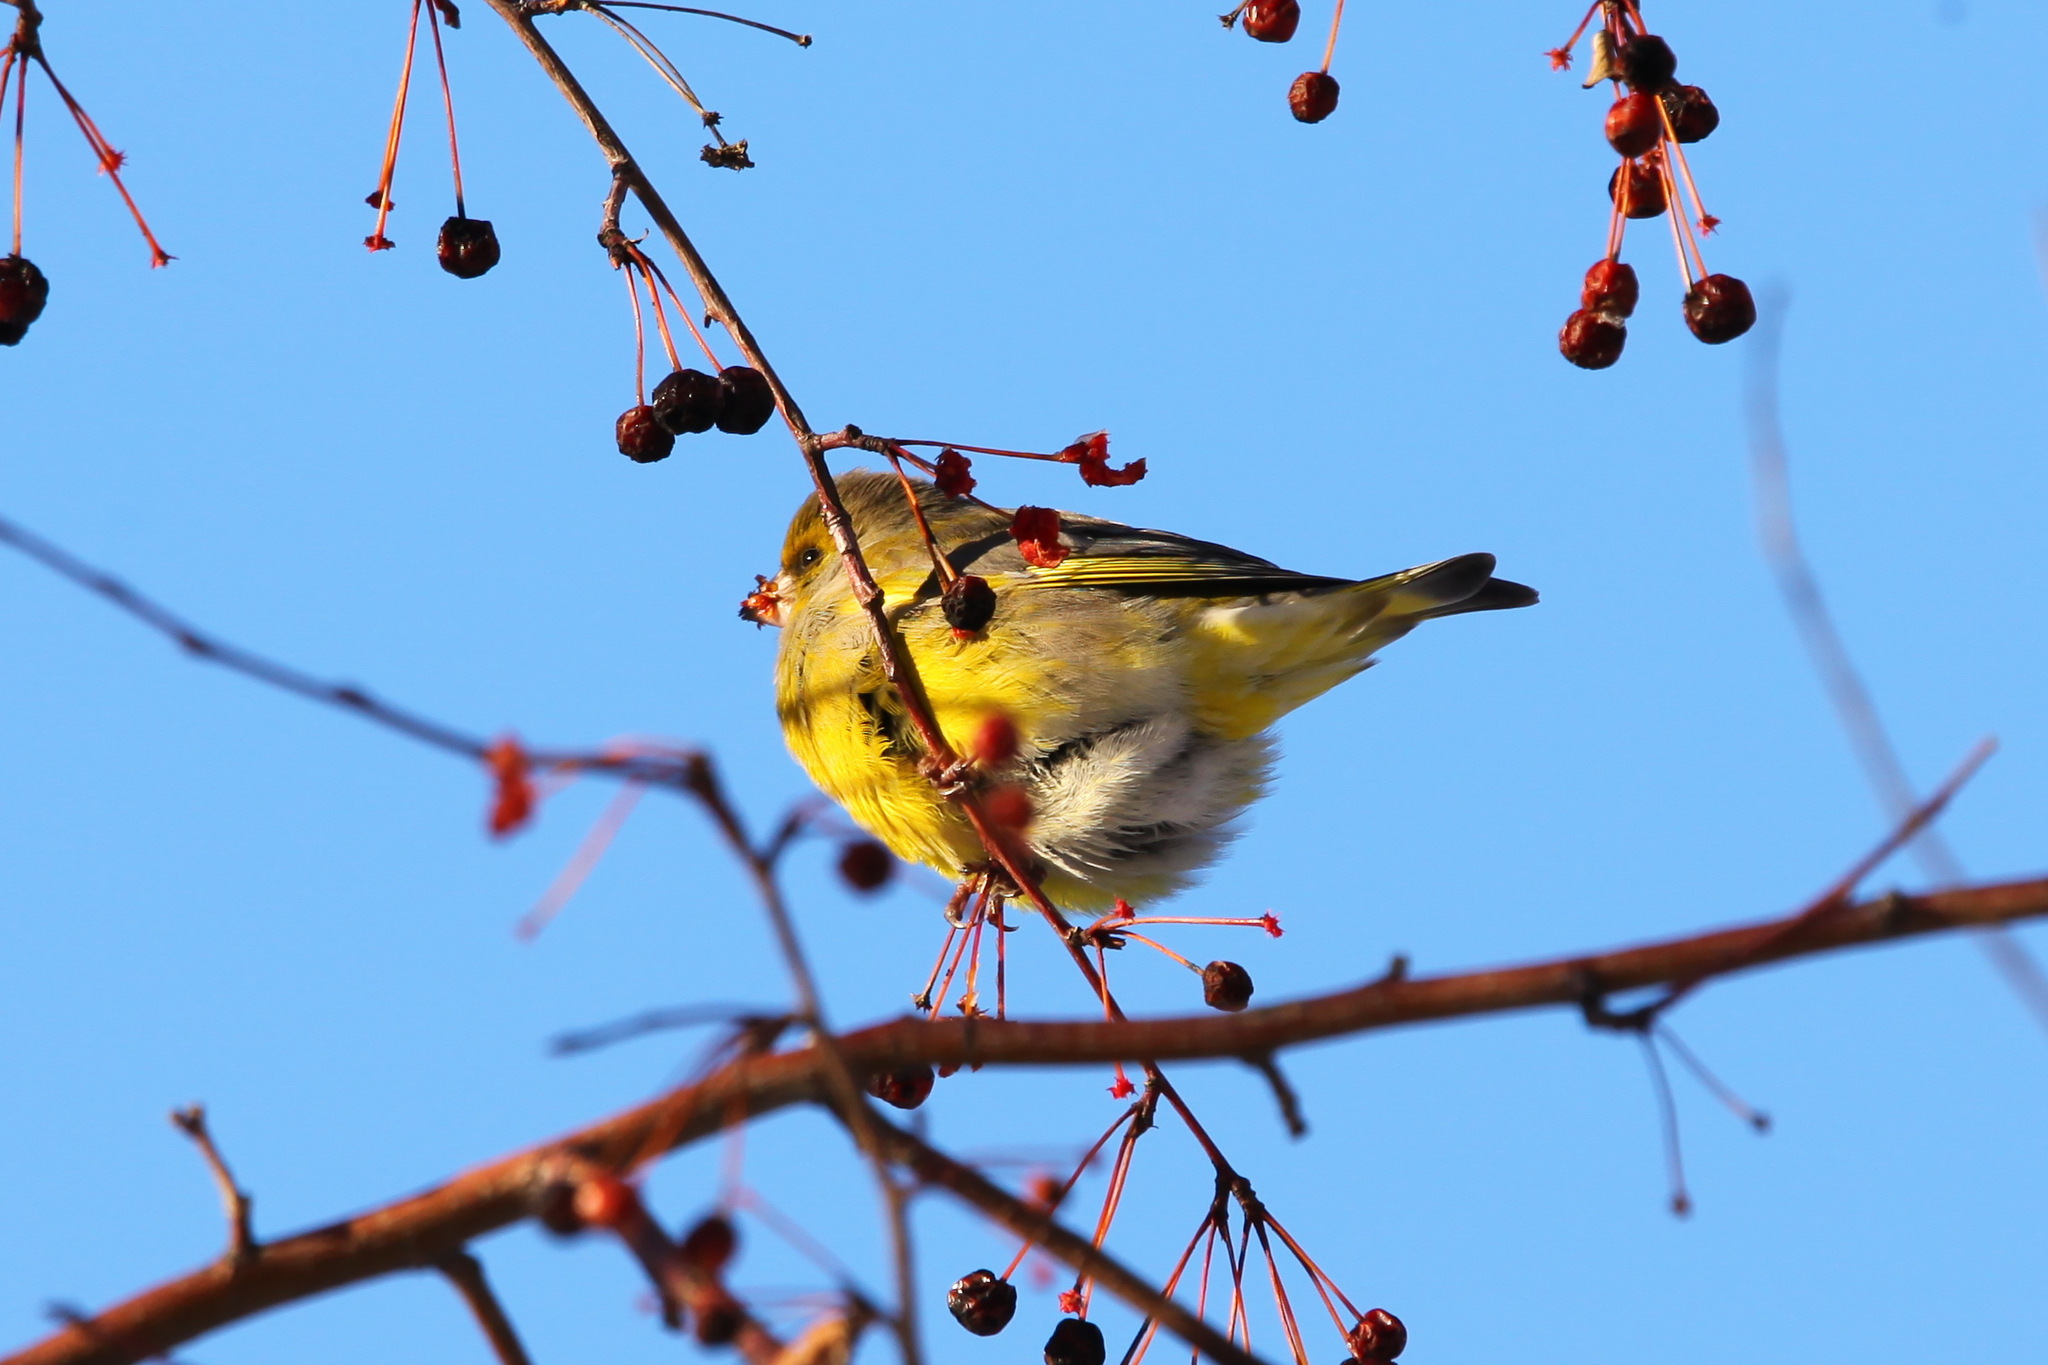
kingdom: Plantae
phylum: Tracheophyta
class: Liliopsida
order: Poales
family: Poaceae
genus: Chloris
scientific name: Chloris chloris
